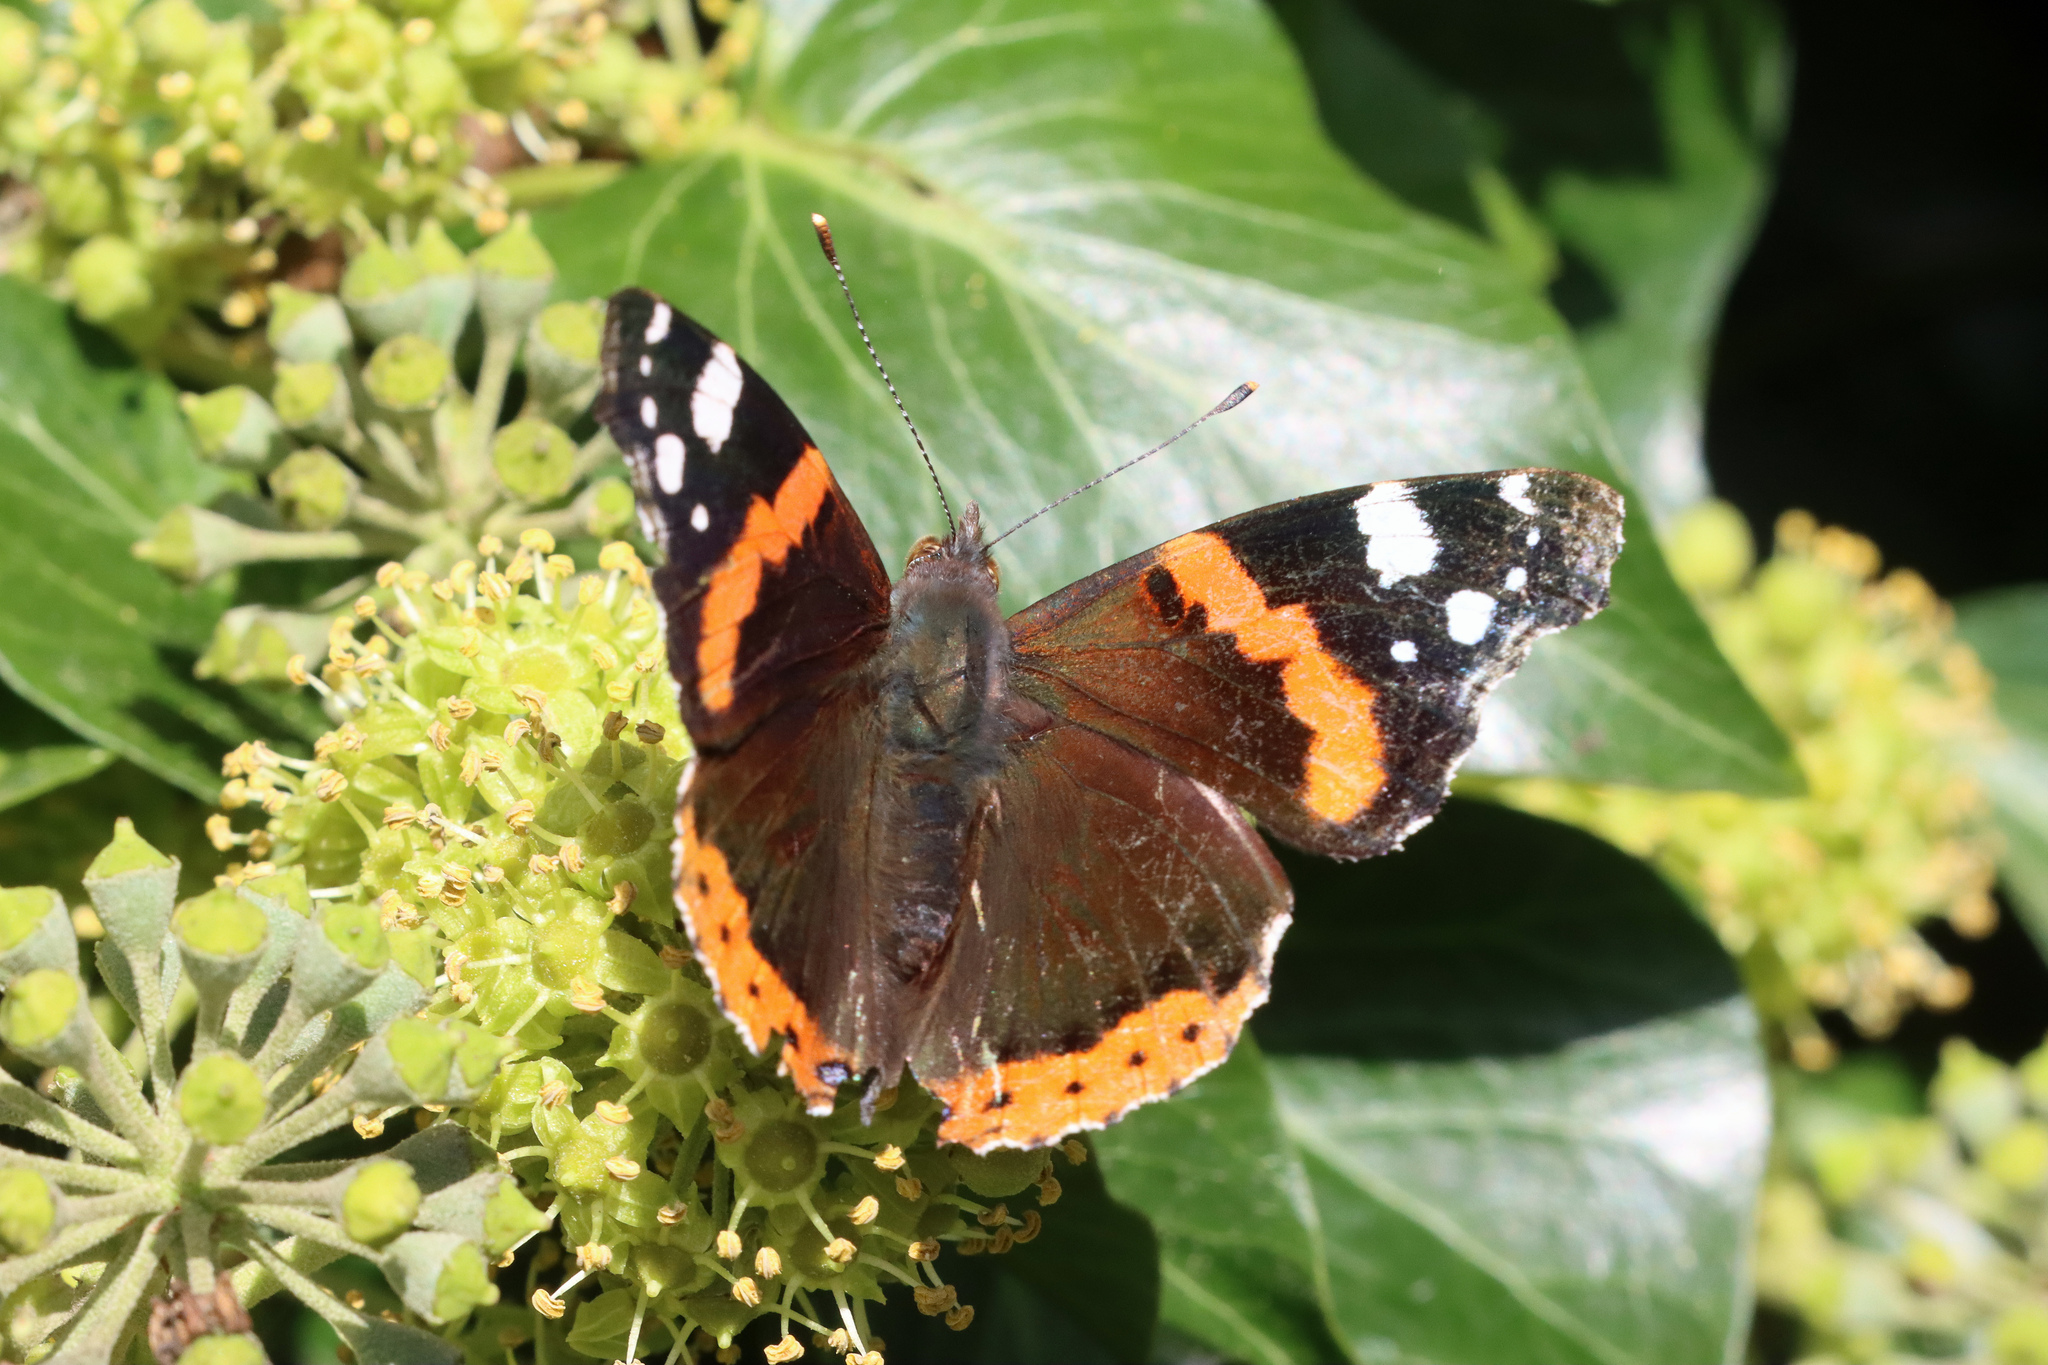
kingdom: Animalia
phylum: Arthropoda
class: Insecta
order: Lepidoptera
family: Nymphalidae
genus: Vanessa
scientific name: Vanessa atalanta
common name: Red admiral
